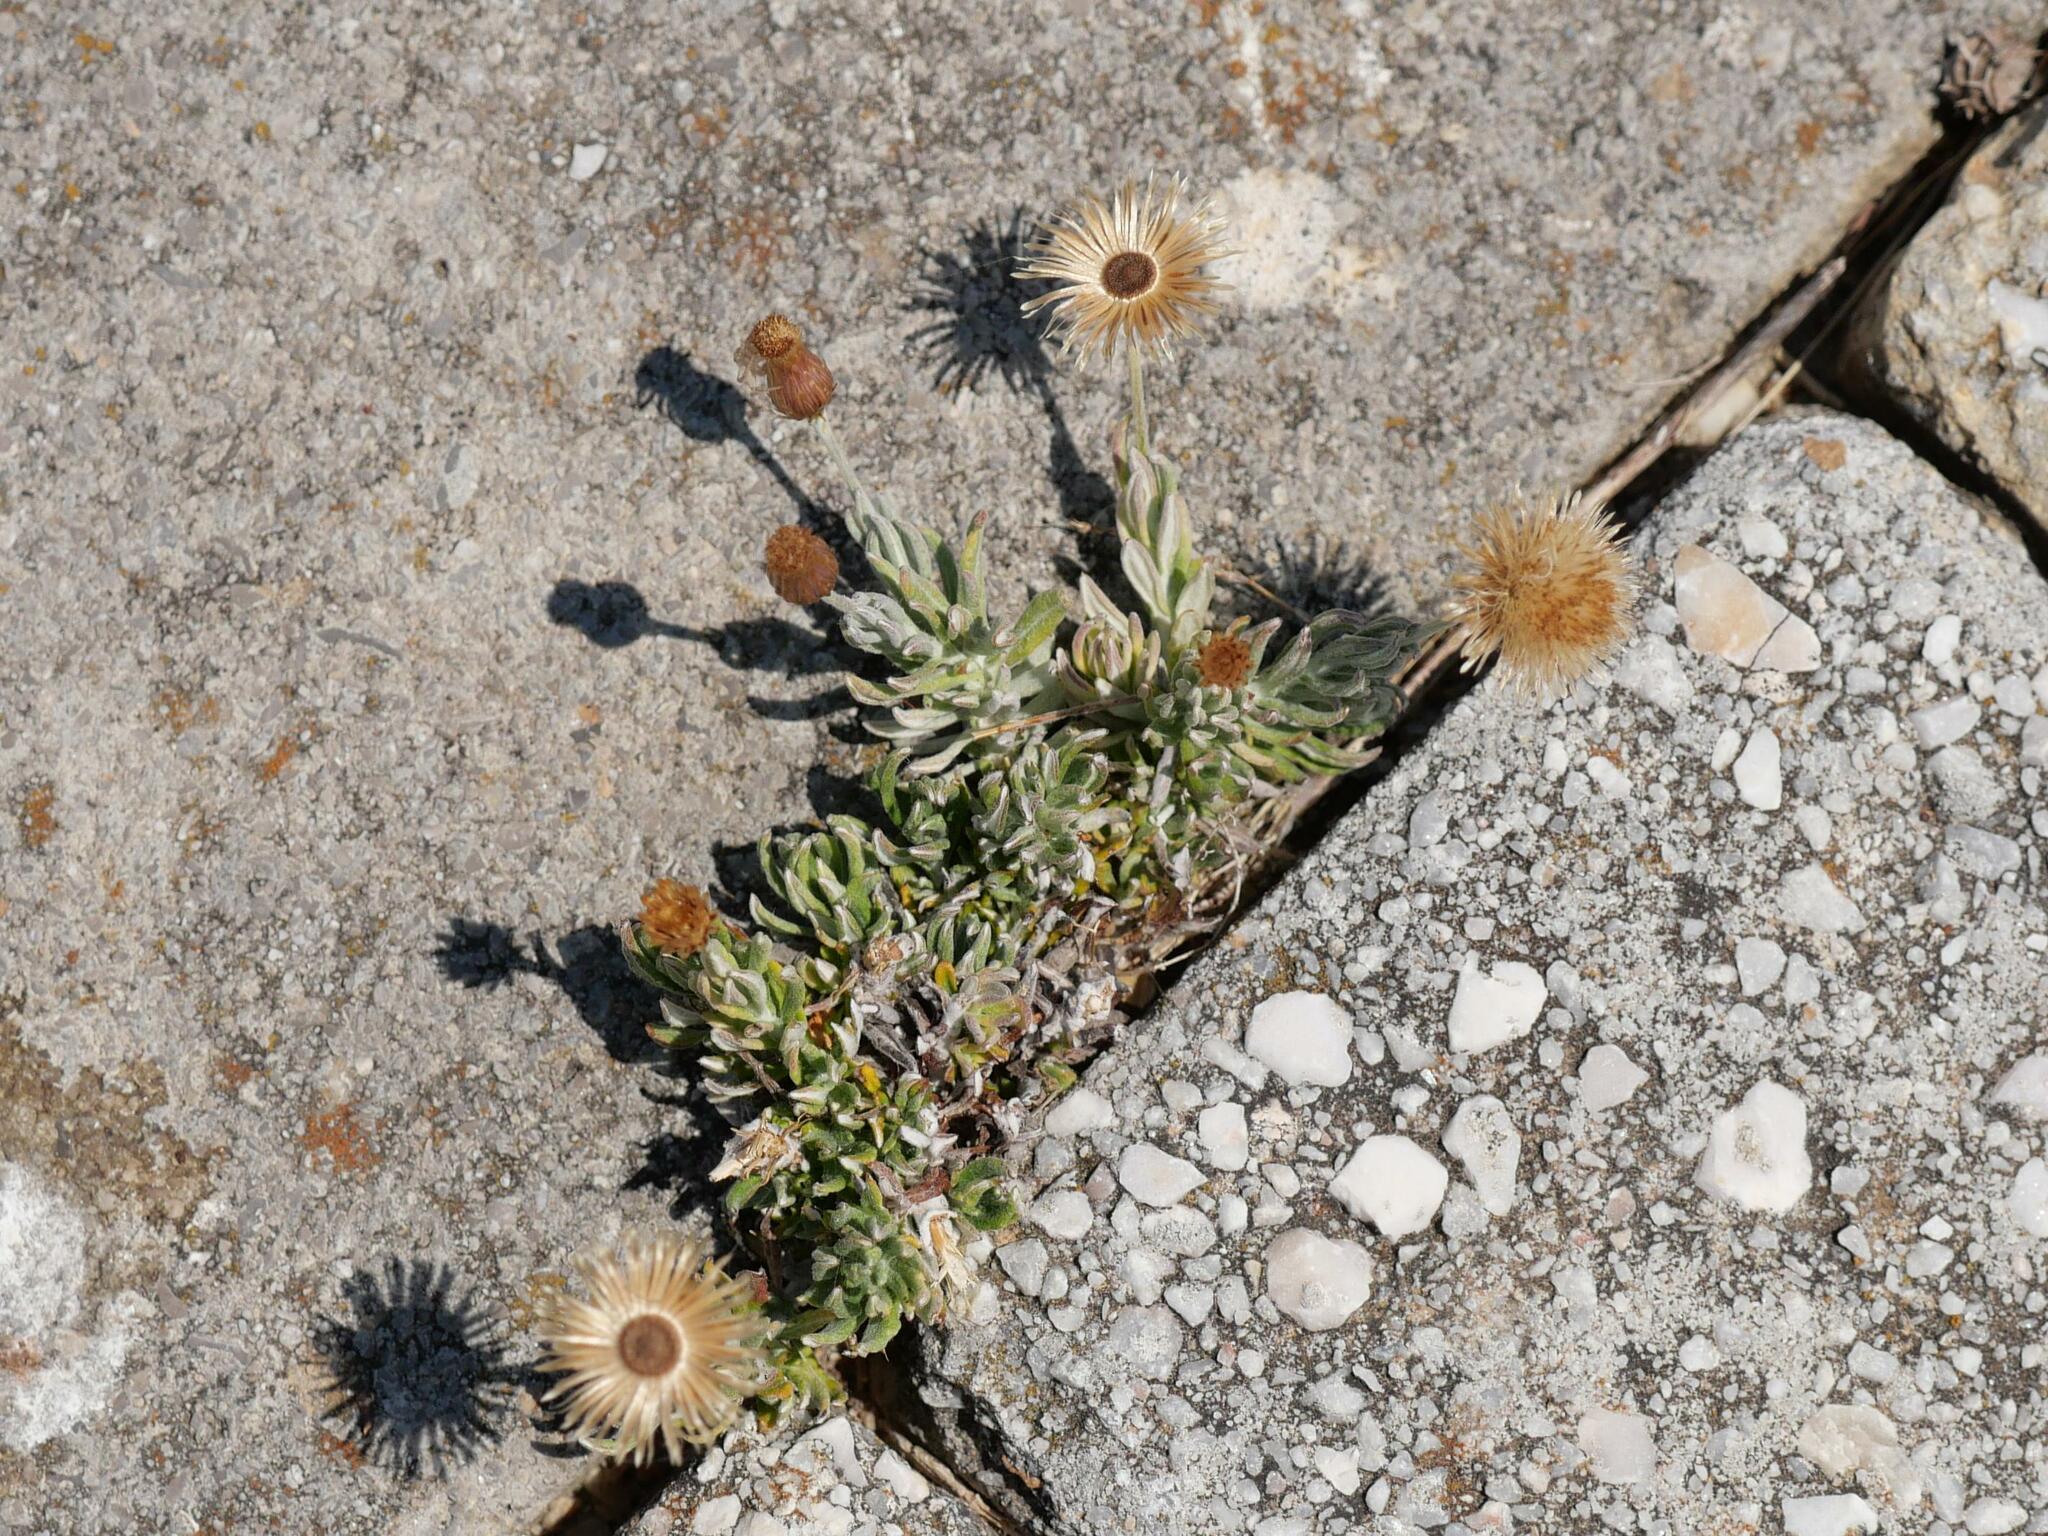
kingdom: Plantae
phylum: Tracheophyta
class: Magnoliopsida
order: Asterales
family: Asteraceae
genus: Phagnalon
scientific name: Phagnalon graecum
